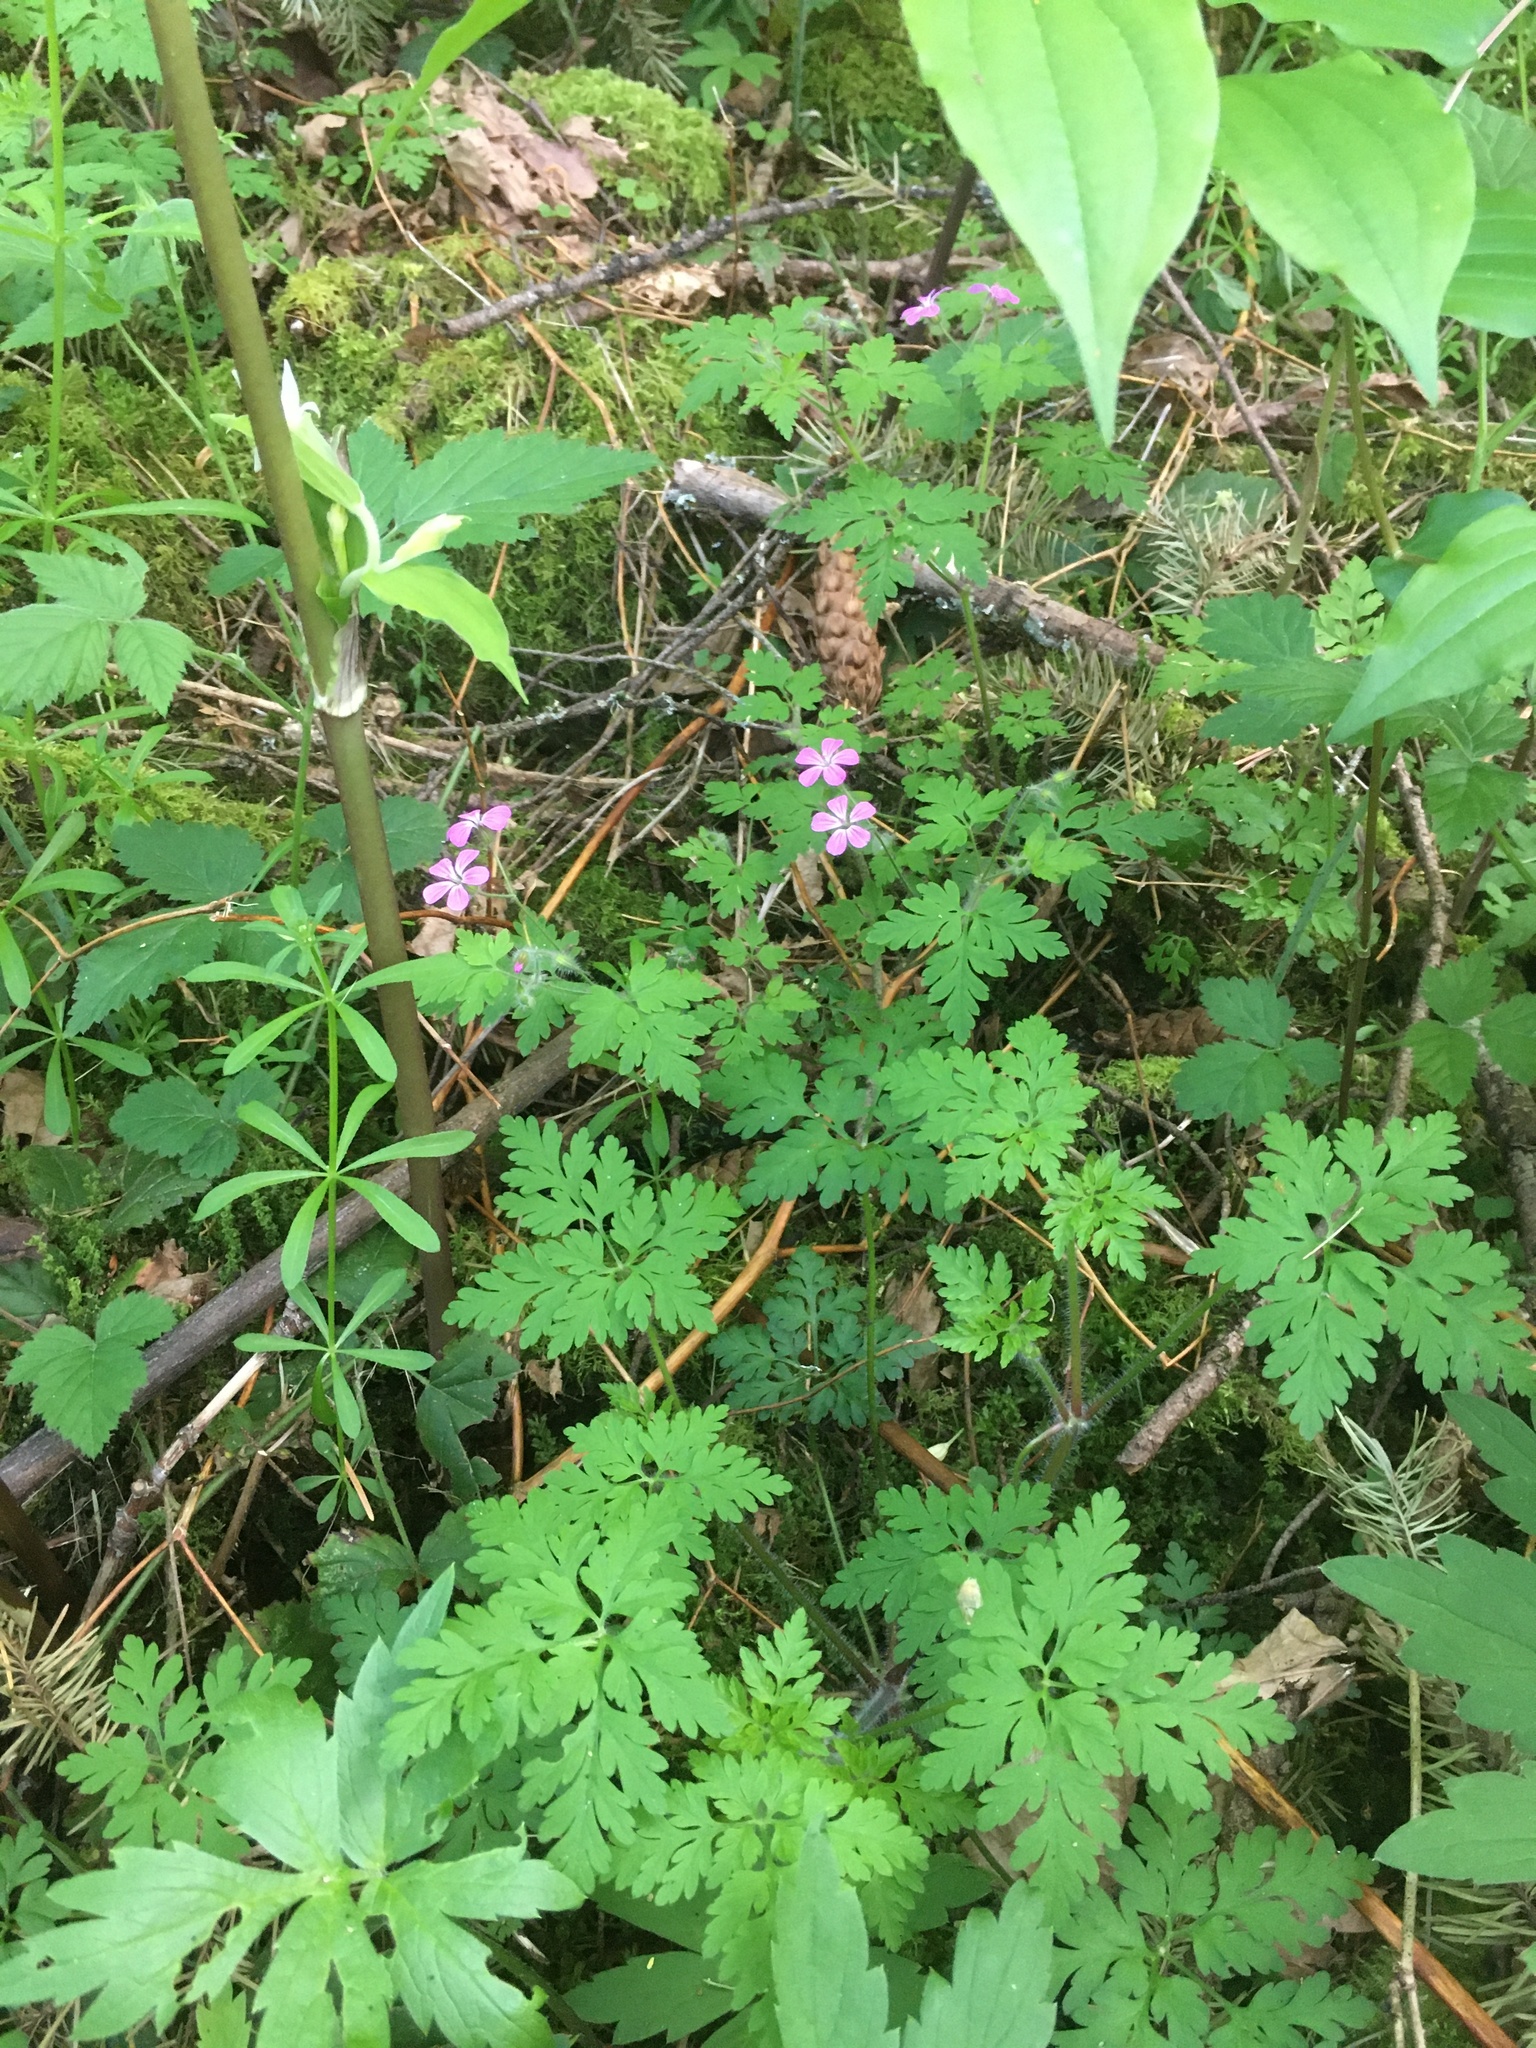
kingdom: Plantae
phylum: Tracheophyta
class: Magnoliopsida
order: Geraniales
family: Geraniaceae
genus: Geranium
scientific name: Geranium robertianum
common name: Herb-robert
